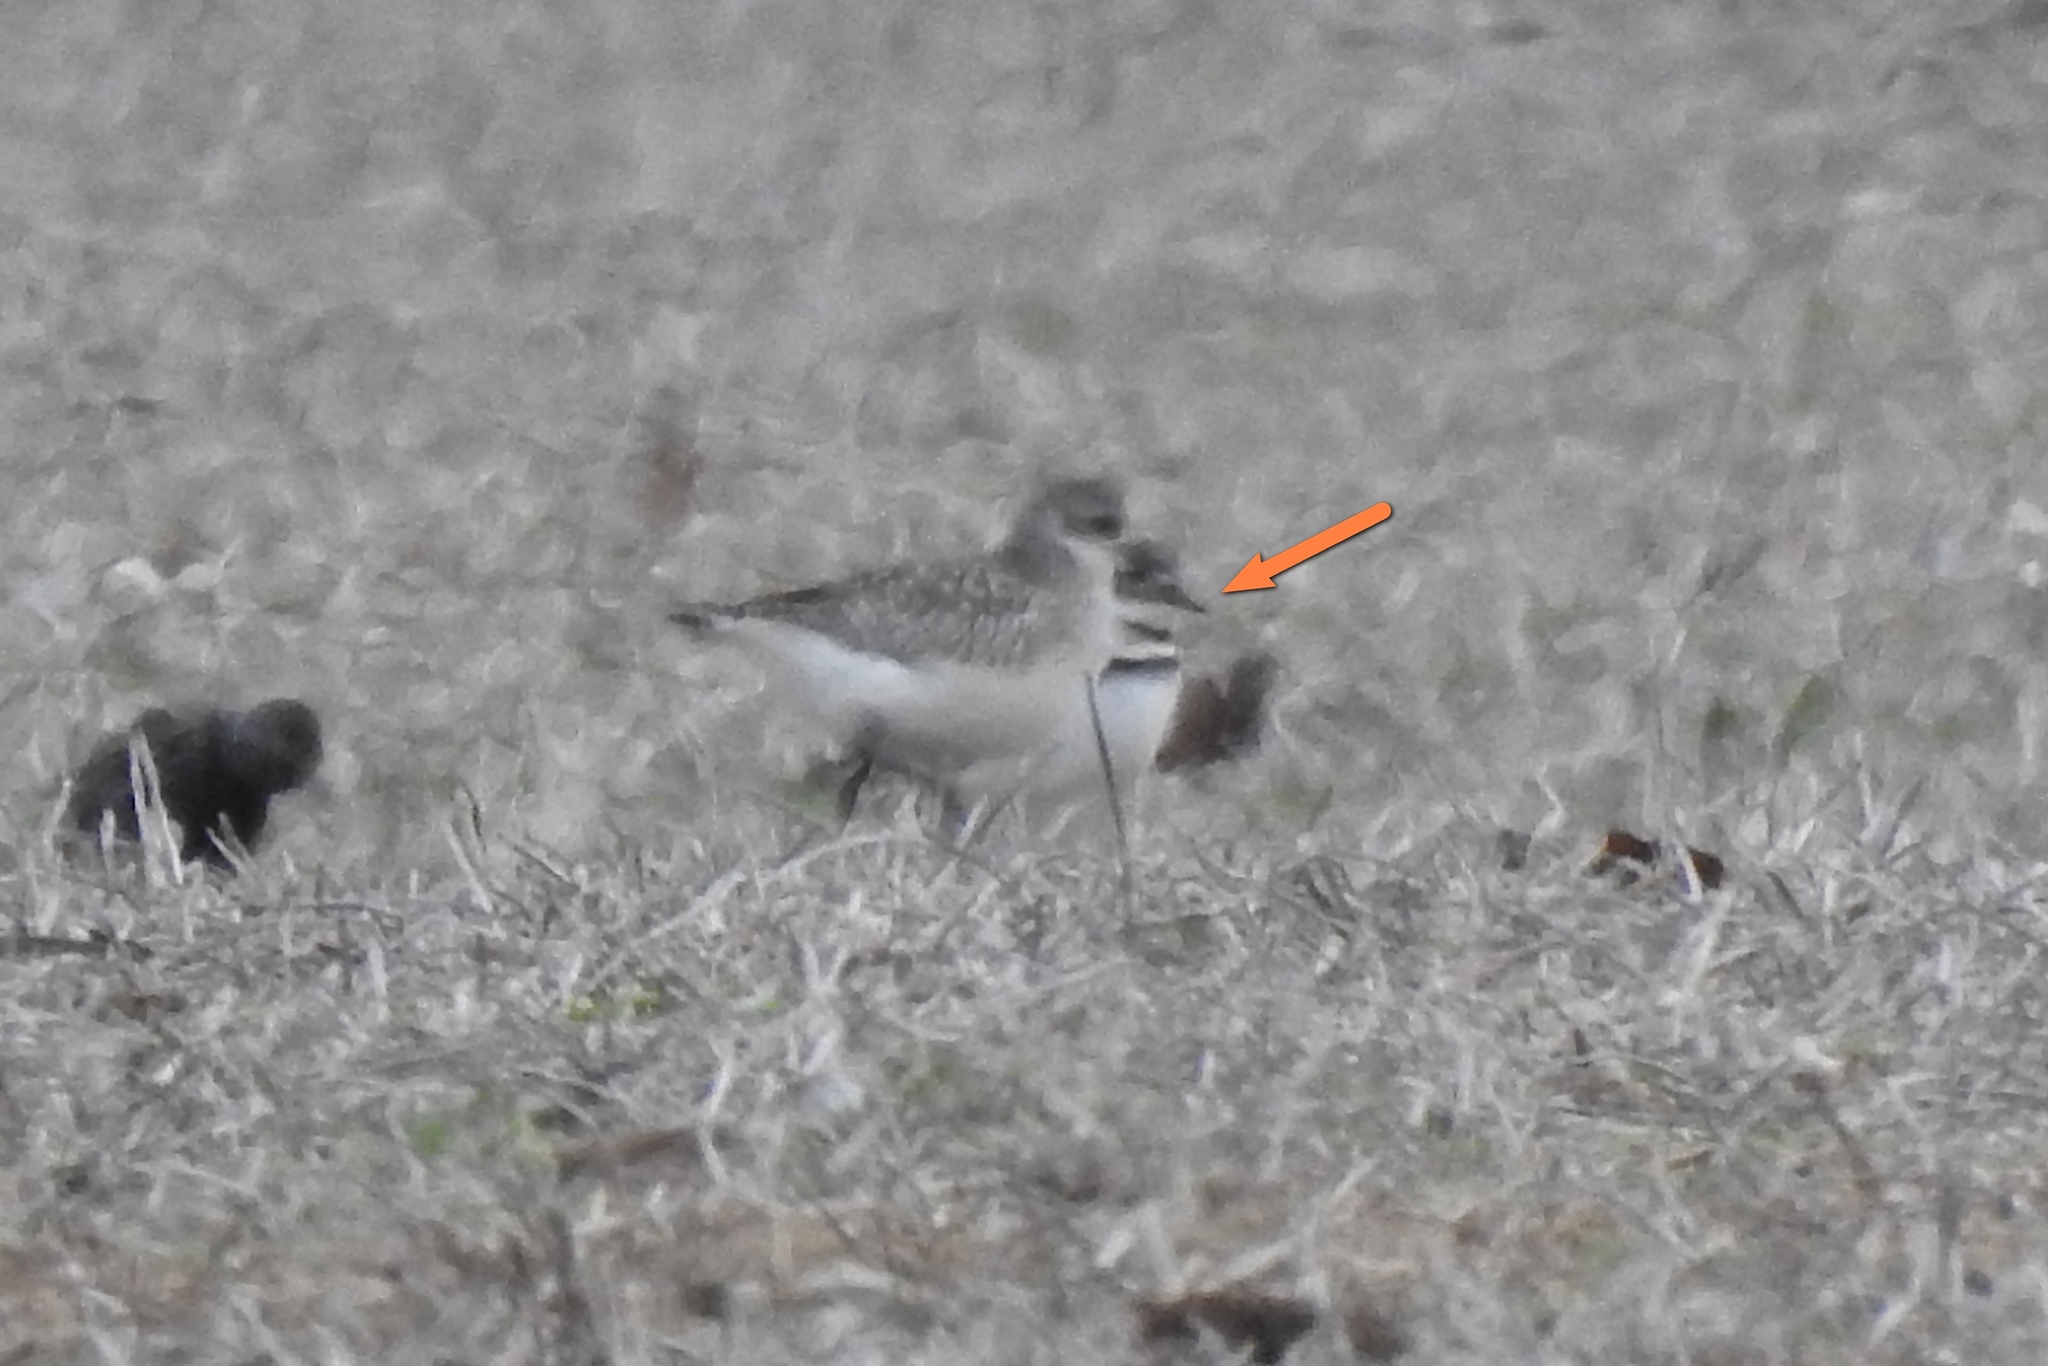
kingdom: Animalia
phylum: Chordata
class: Aves
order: Charadriiformes
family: Charadriidae
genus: Charadrius
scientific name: Charadrius vociferus
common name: Killdeer
